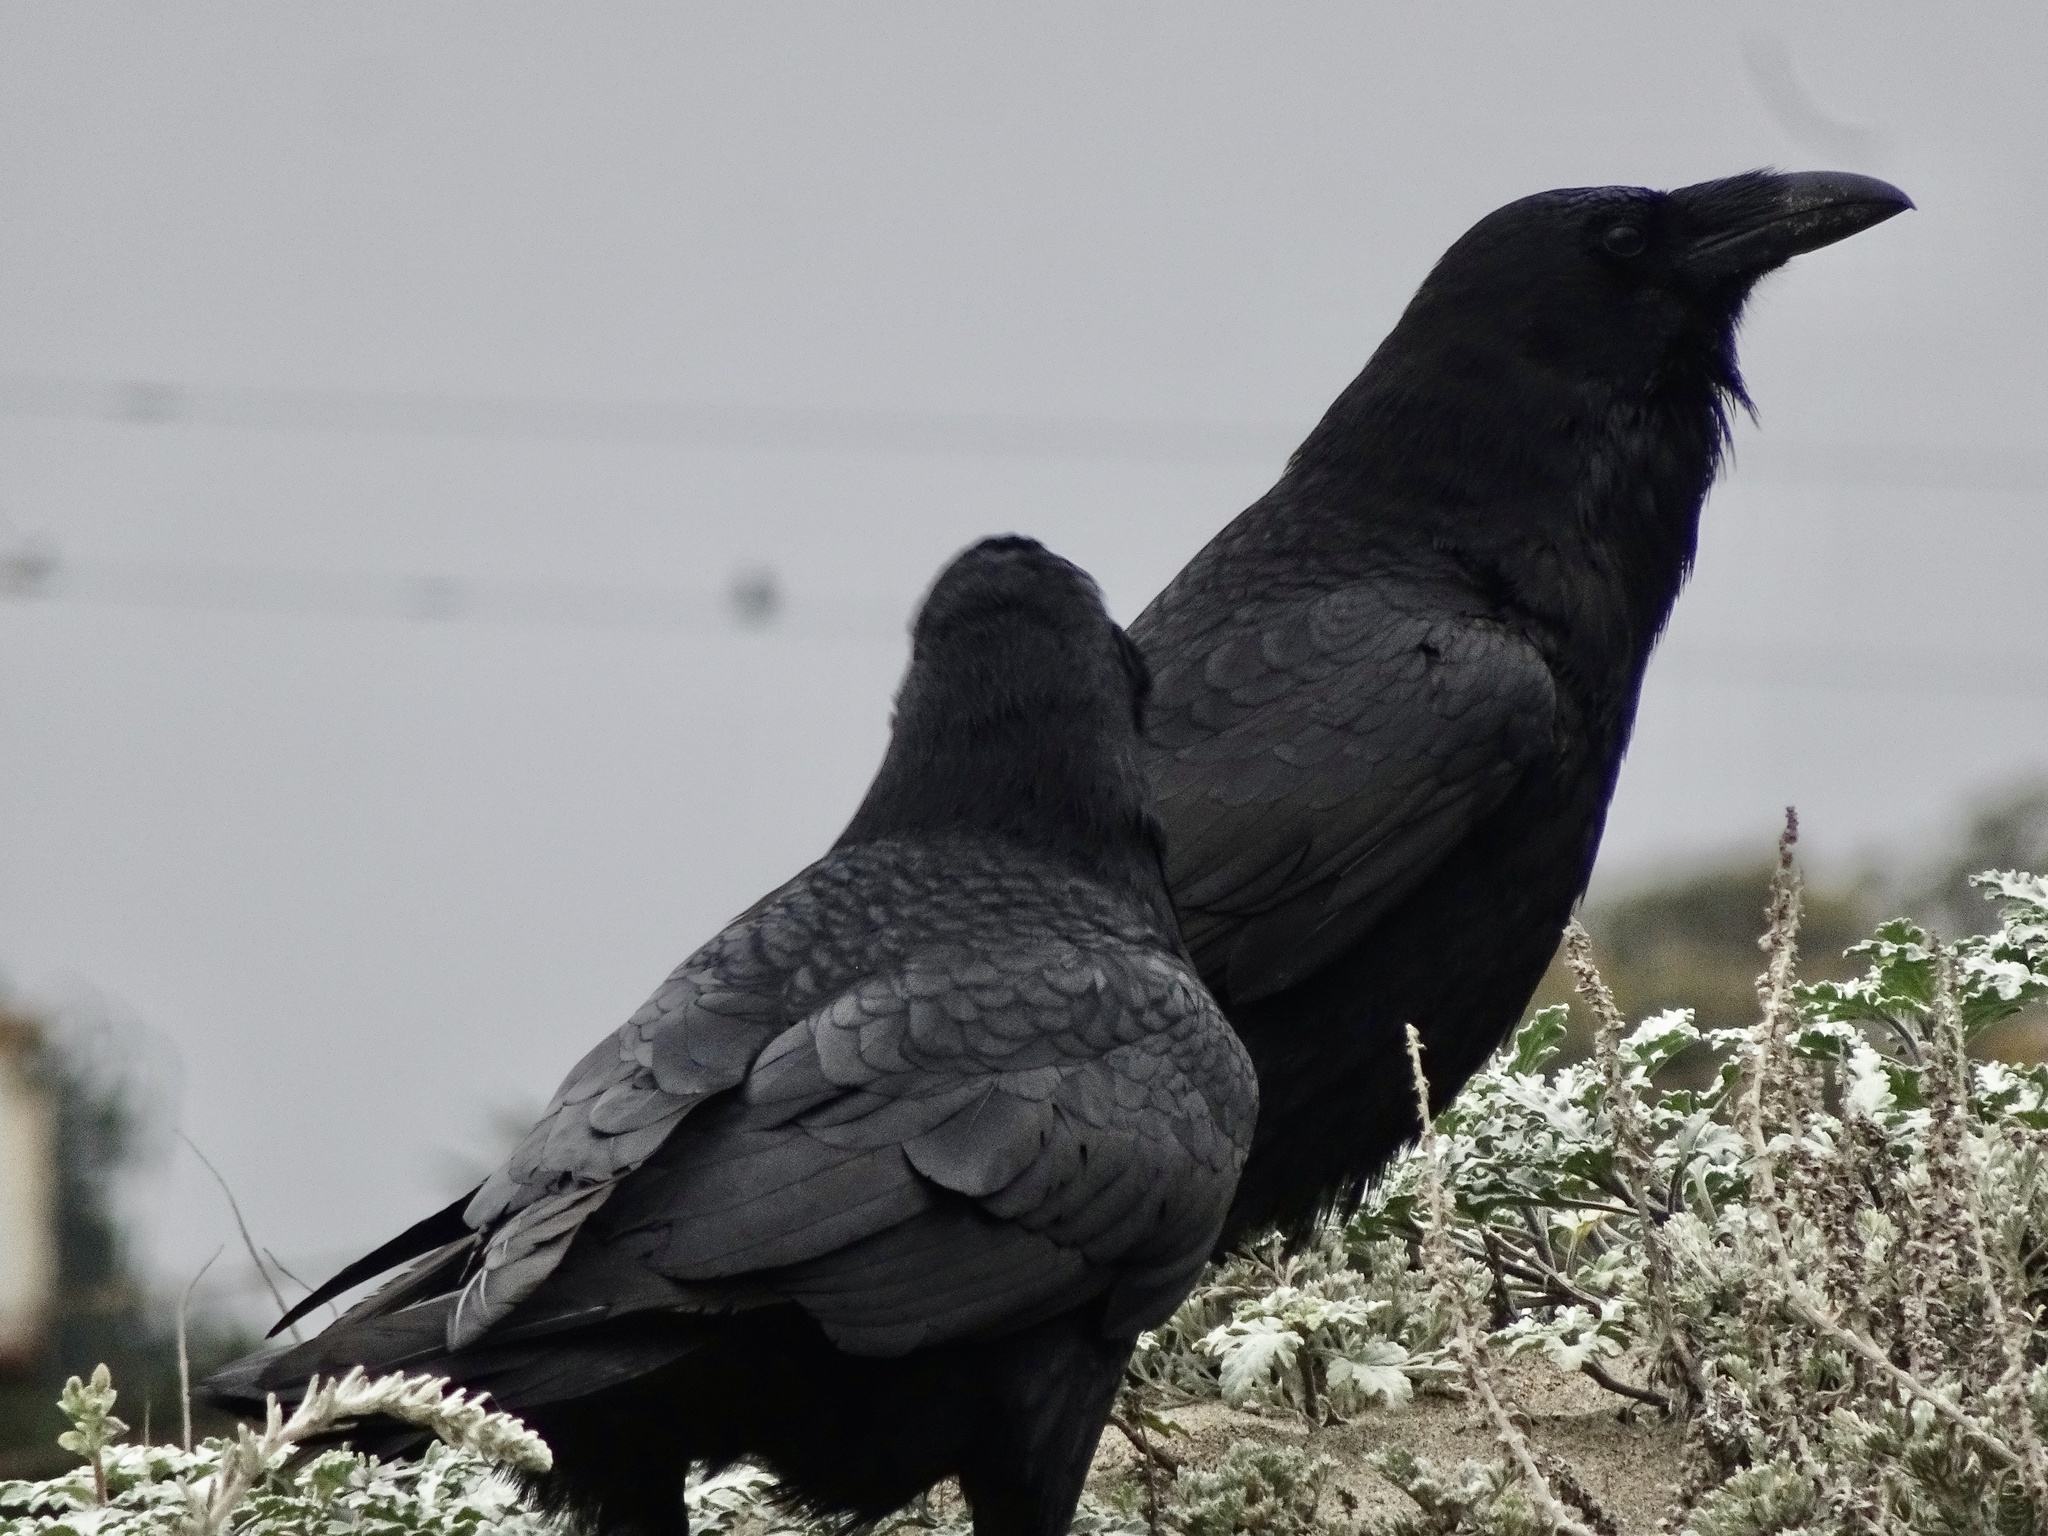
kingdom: Animalia
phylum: Chordata
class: Aves
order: Passeriformes
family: Corvidae
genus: Corvus
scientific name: Corvus corax
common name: Common raven
